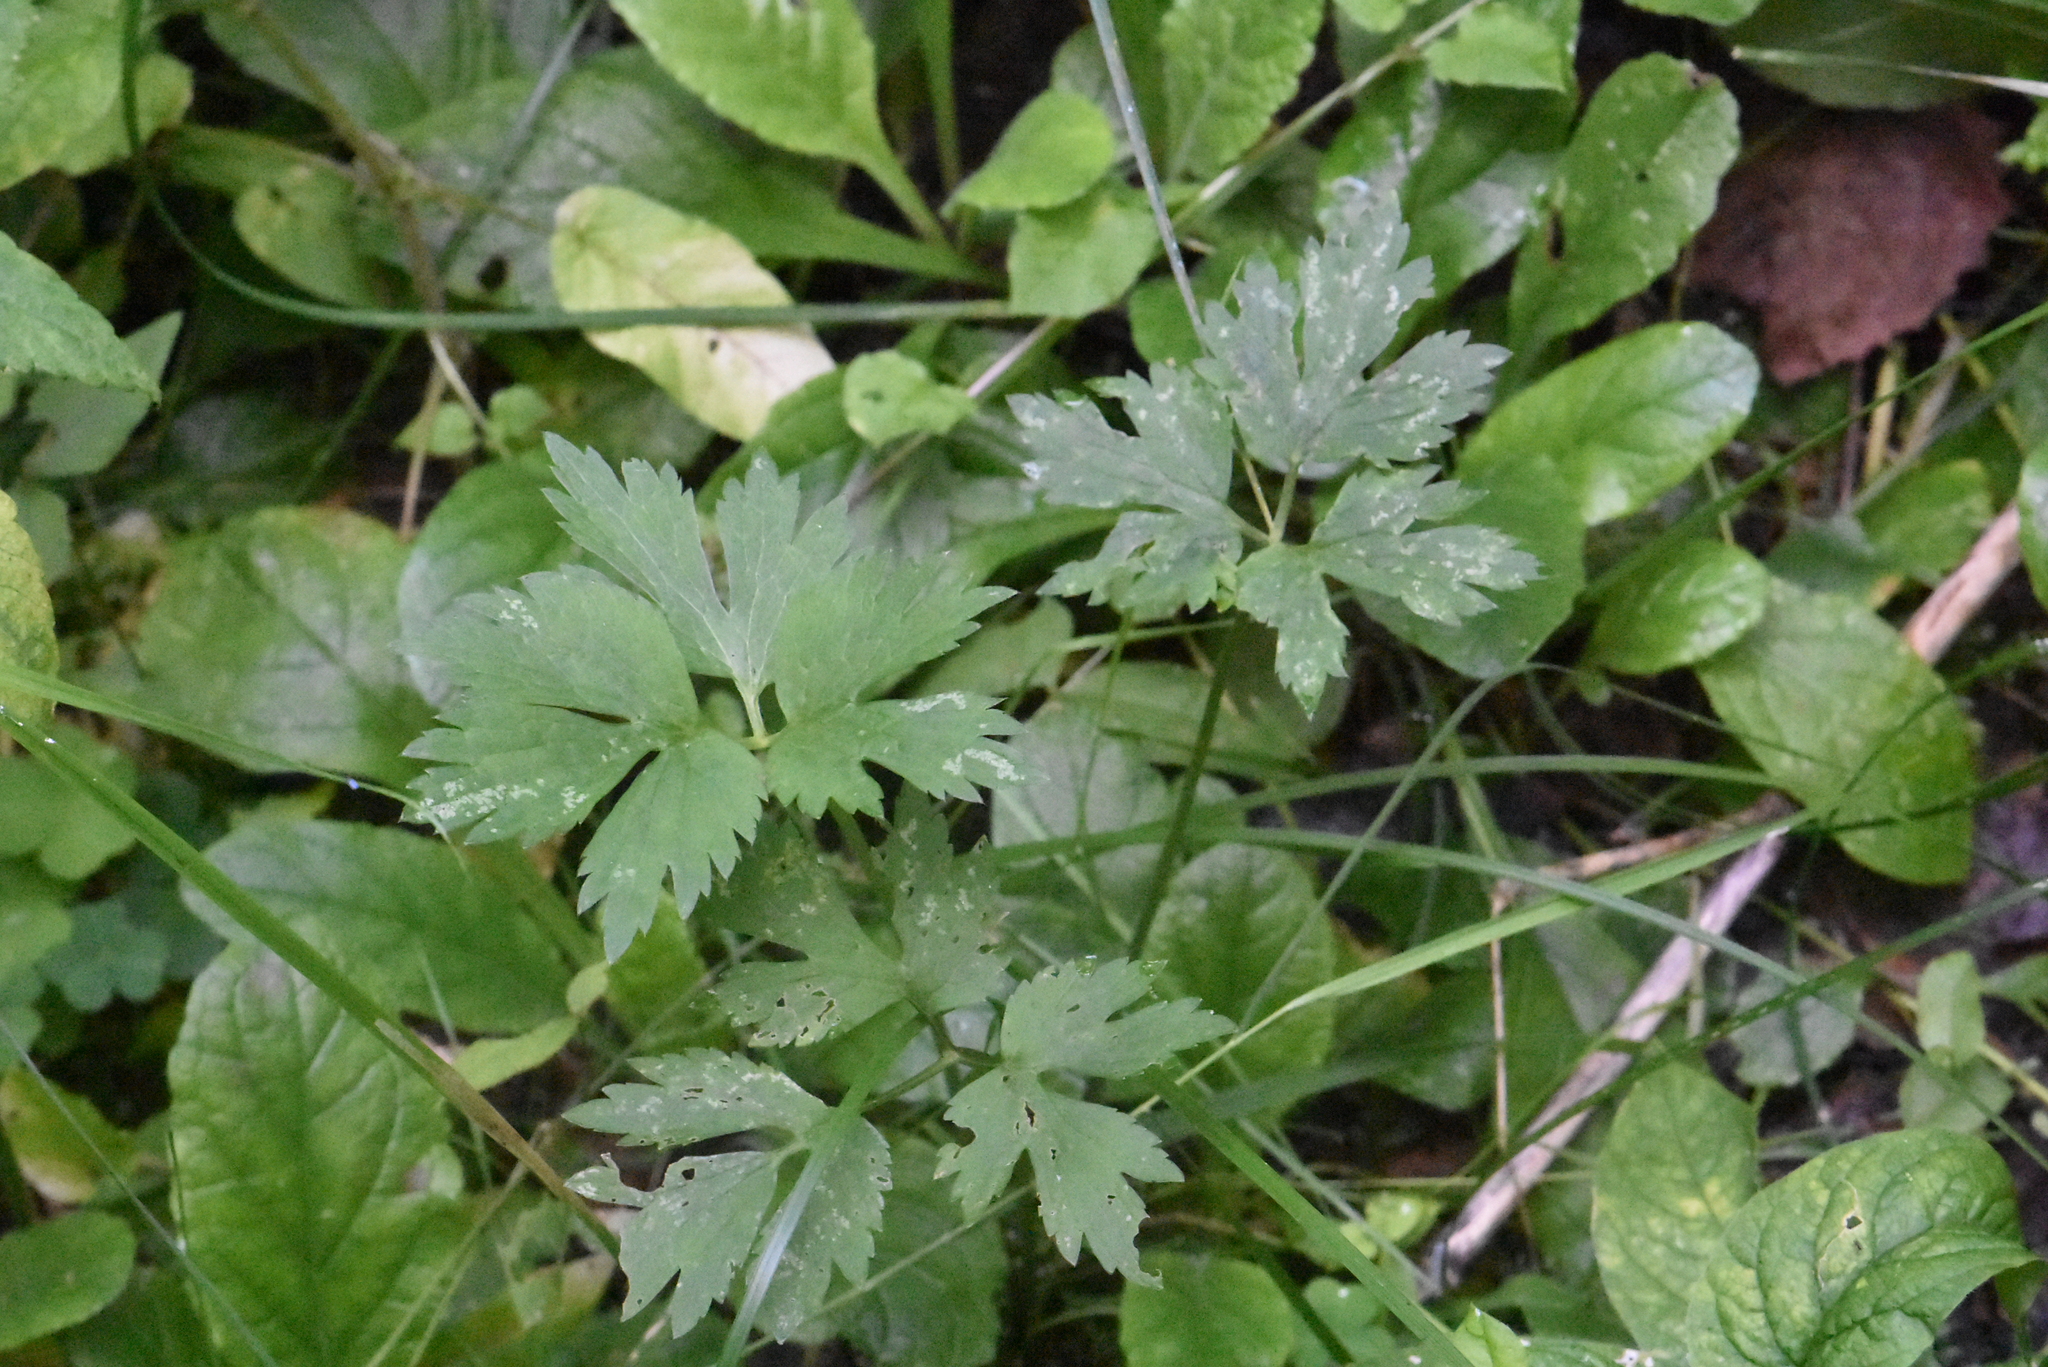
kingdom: Plantae
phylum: Tracheophyta
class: Magnoliopsida
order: Ranunculales
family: Ranunculaceae
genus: Ranunculus
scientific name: Ranunculus repens
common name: Creeping buttercup
